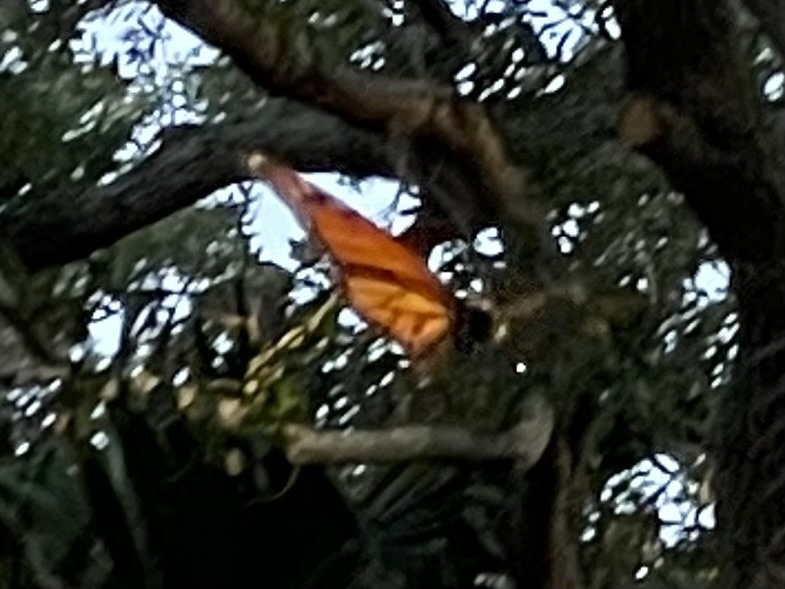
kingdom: Animalia
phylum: Arthropoda
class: Insecta
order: Lepidoptera
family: Nymphalidae
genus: Danaus
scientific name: Danaus plexippus
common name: Monarch
